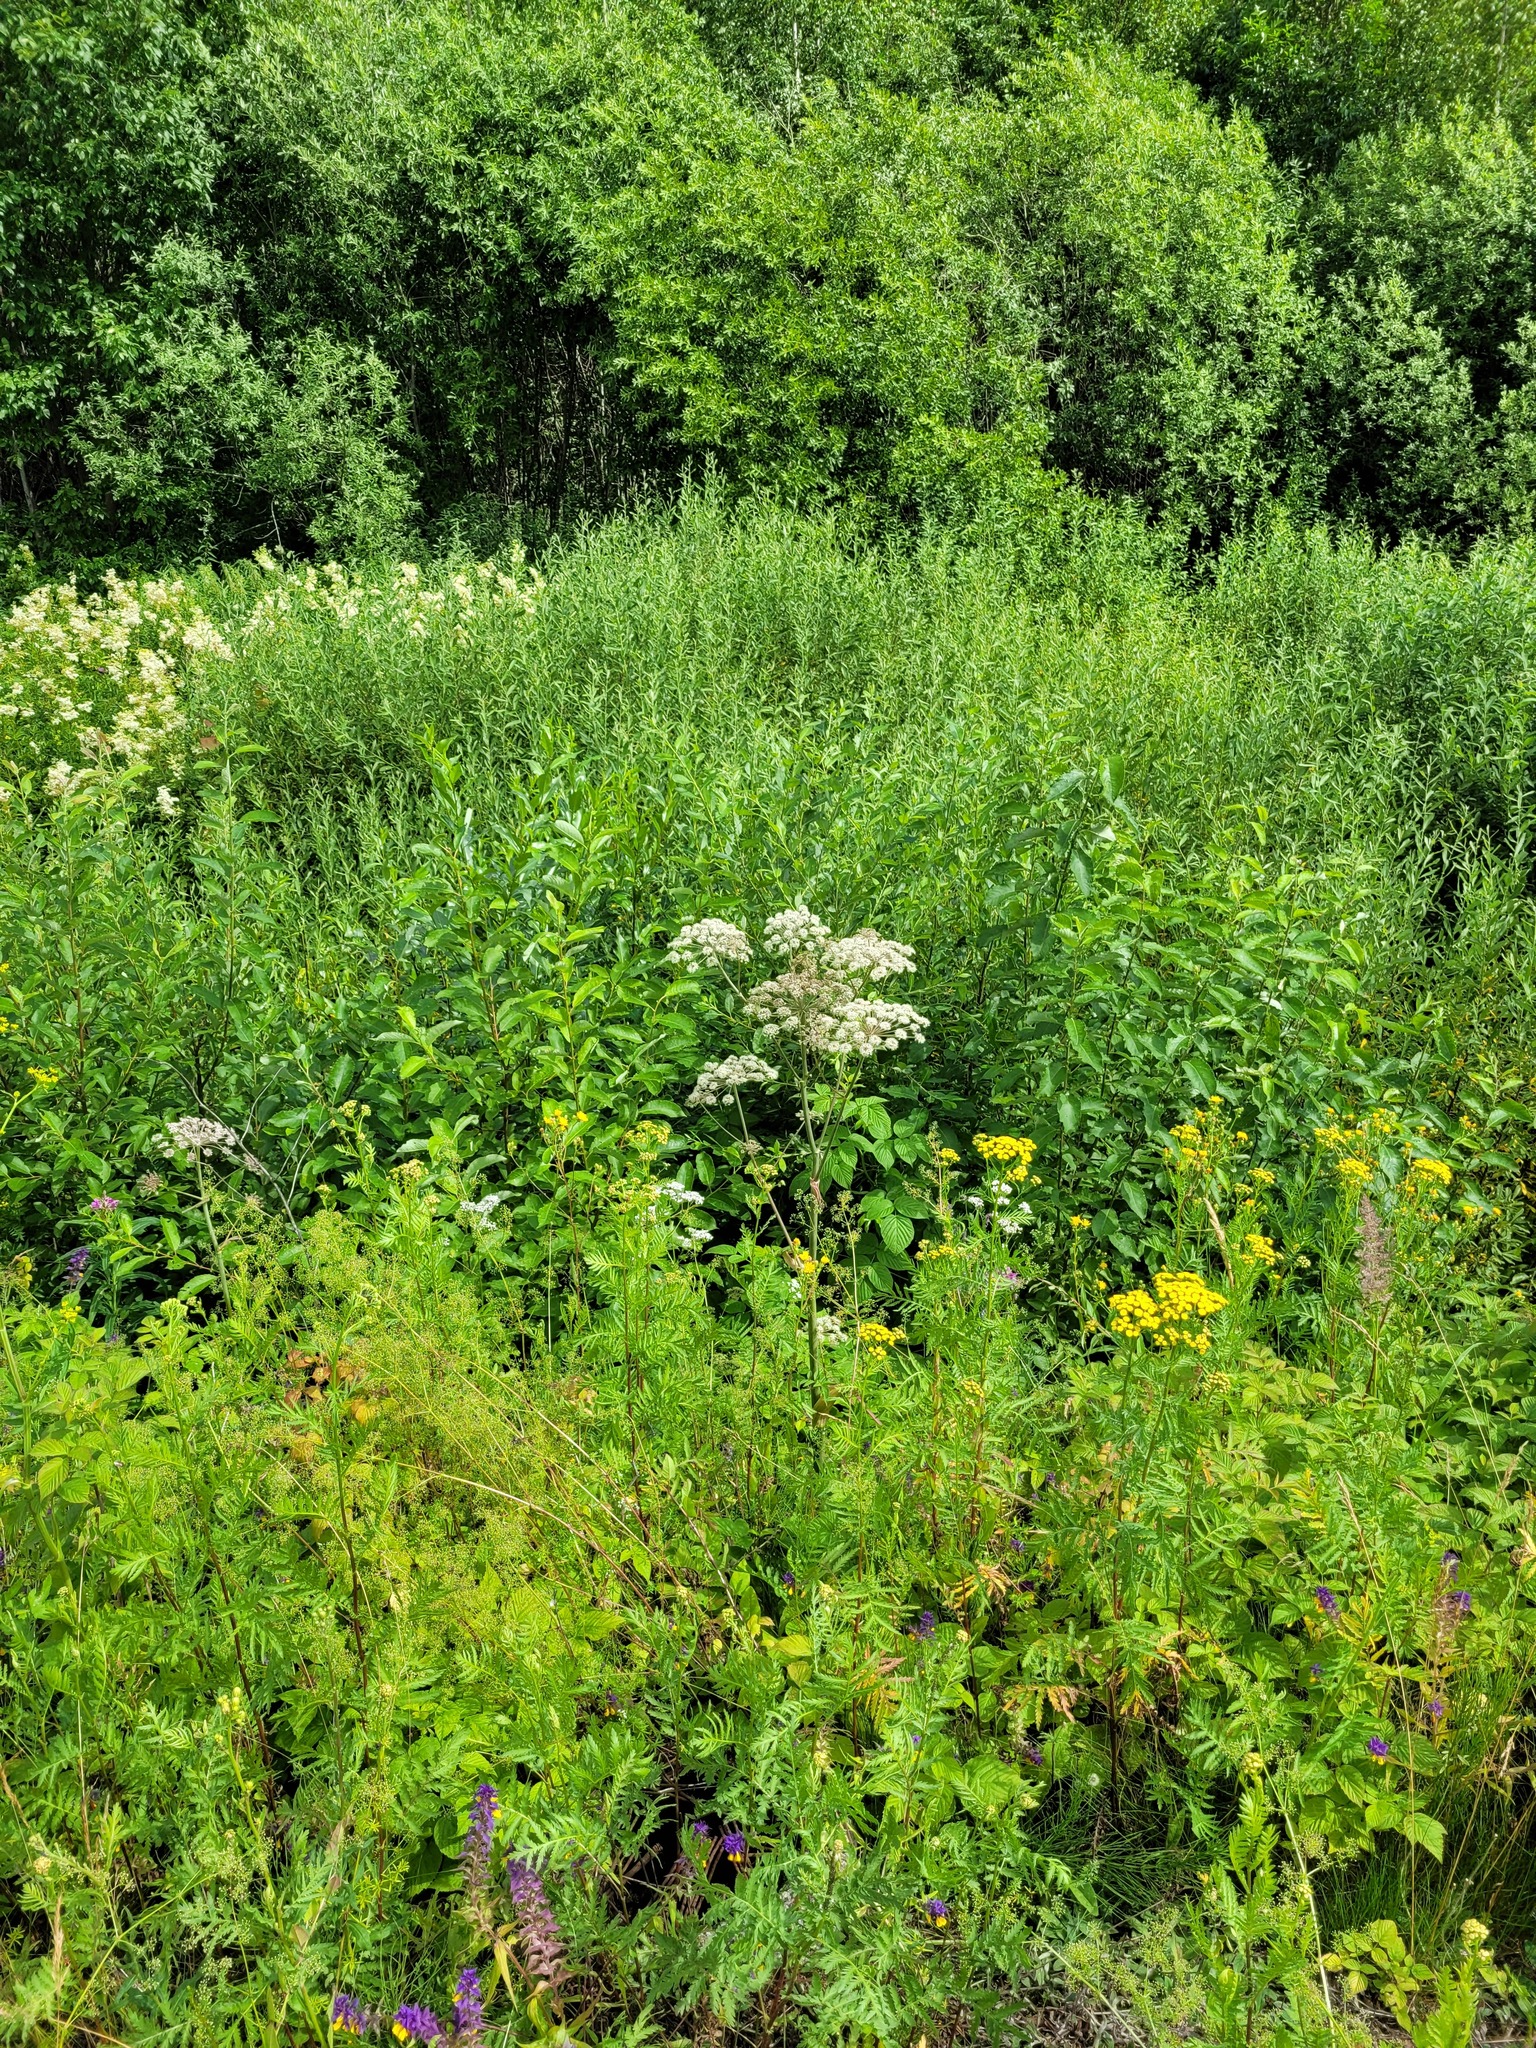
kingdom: Plantae
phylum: Tracheophyta
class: Magnoliopsida
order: Apiales
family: Apiaceae
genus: Angelica
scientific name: Angelica sylvestris
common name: Wild angelica
